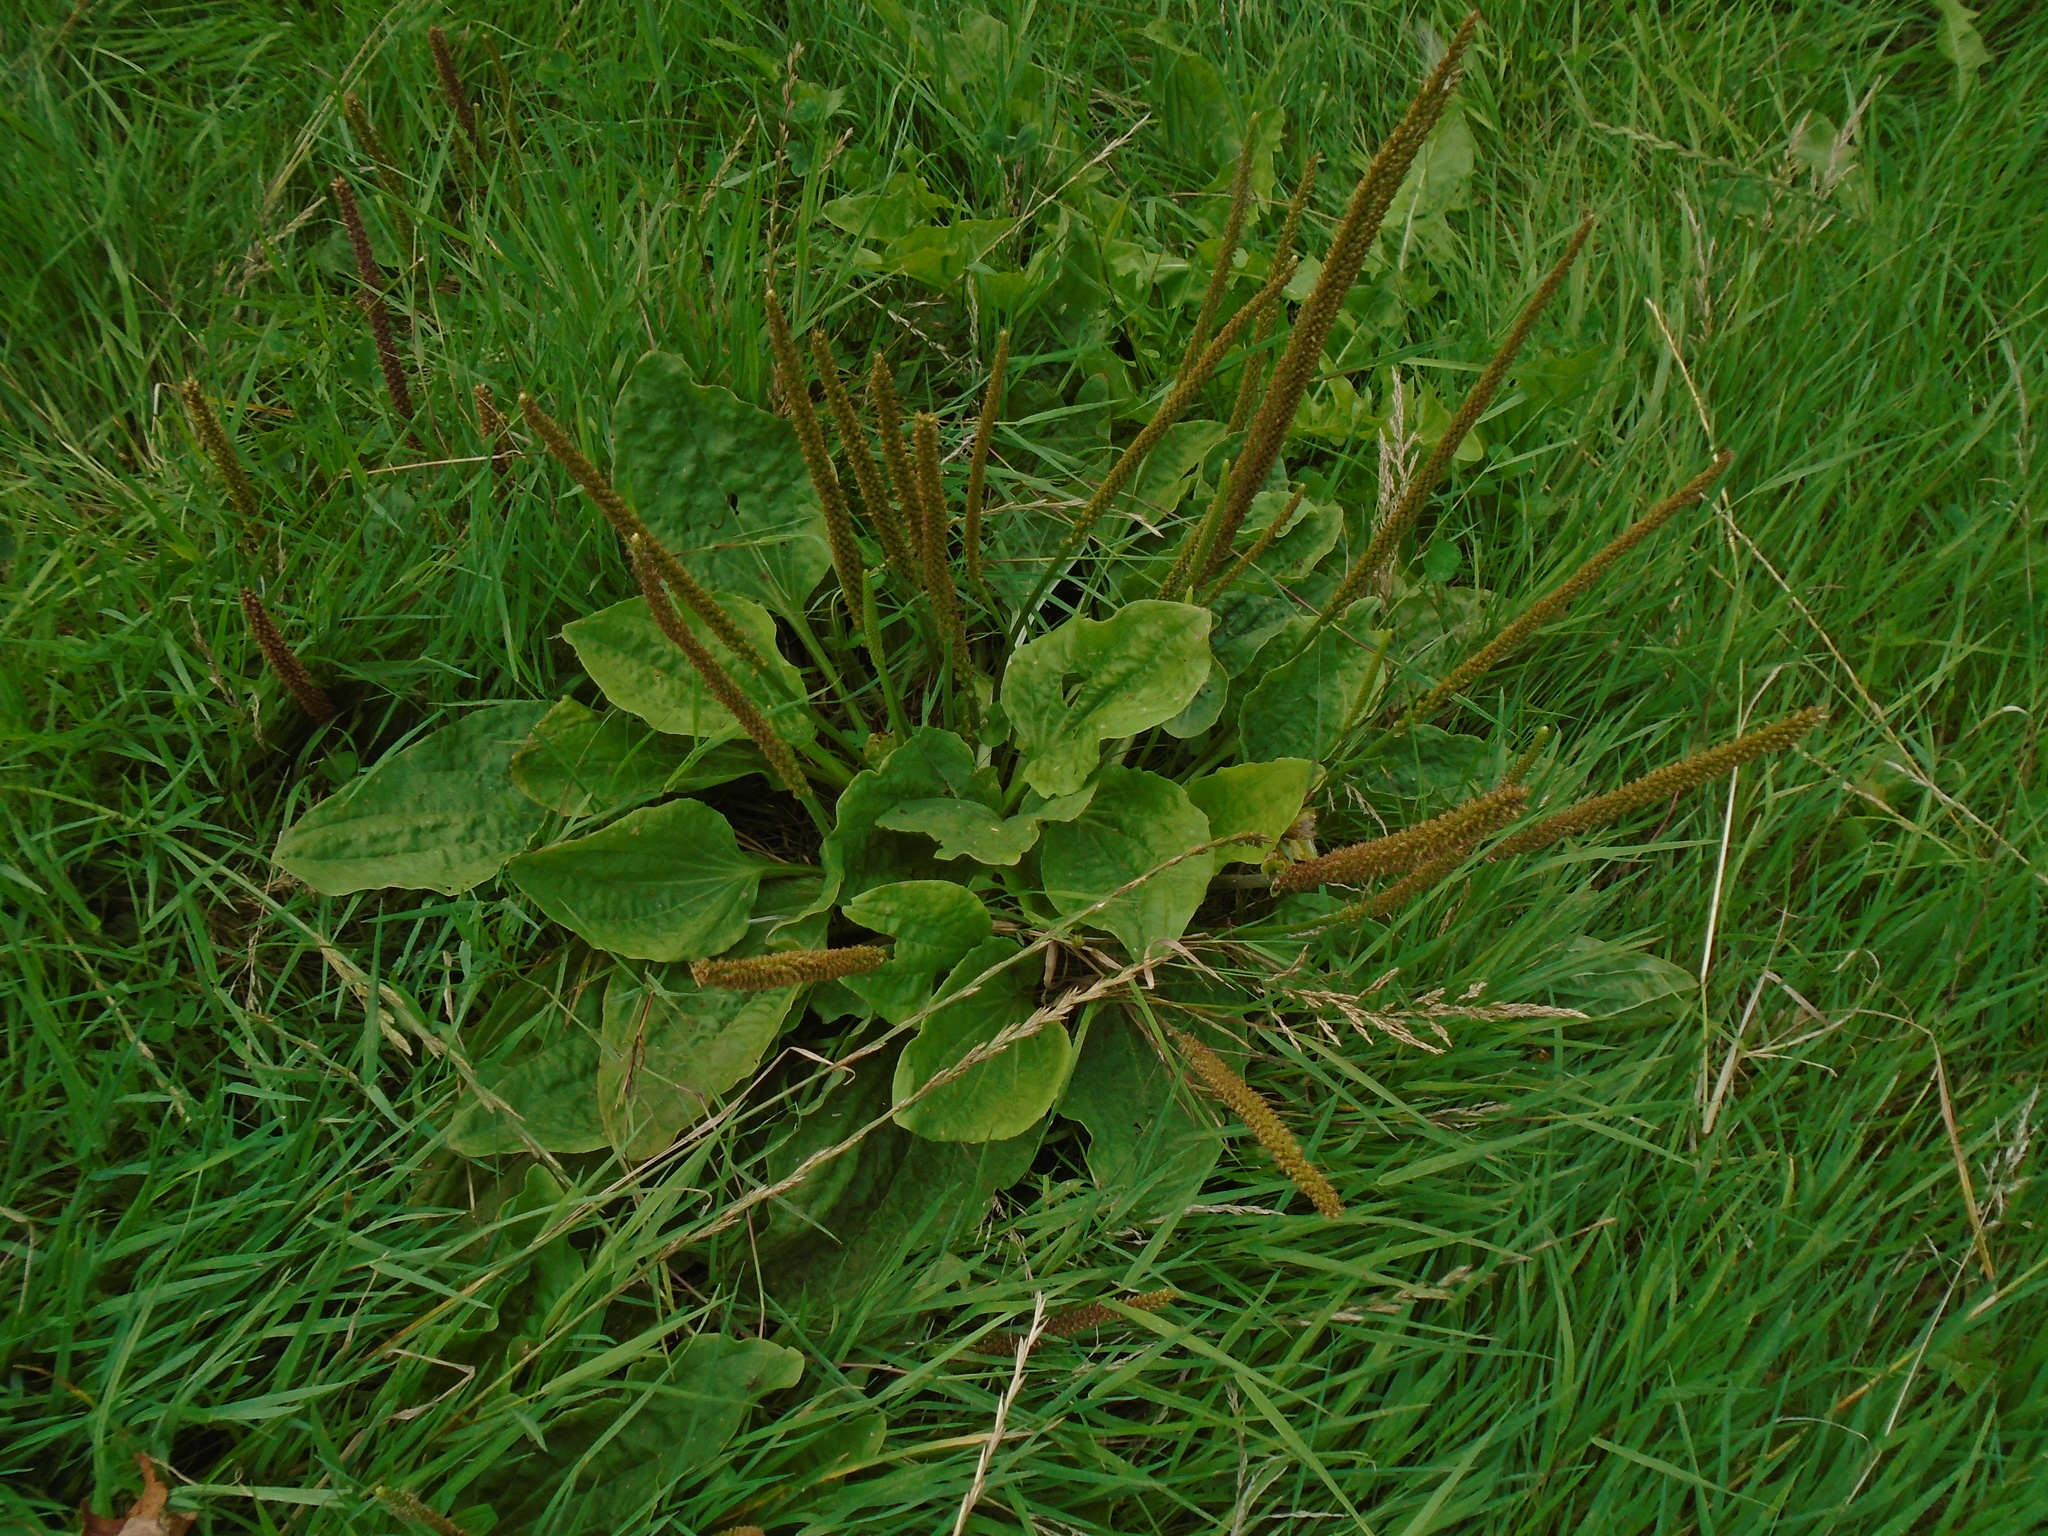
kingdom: Plantae
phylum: Tracheophyta
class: Magnoliopsida
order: Lamiales
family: Plantaginaceae
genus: Plantago
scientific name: Plantago major
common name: Common plantain
